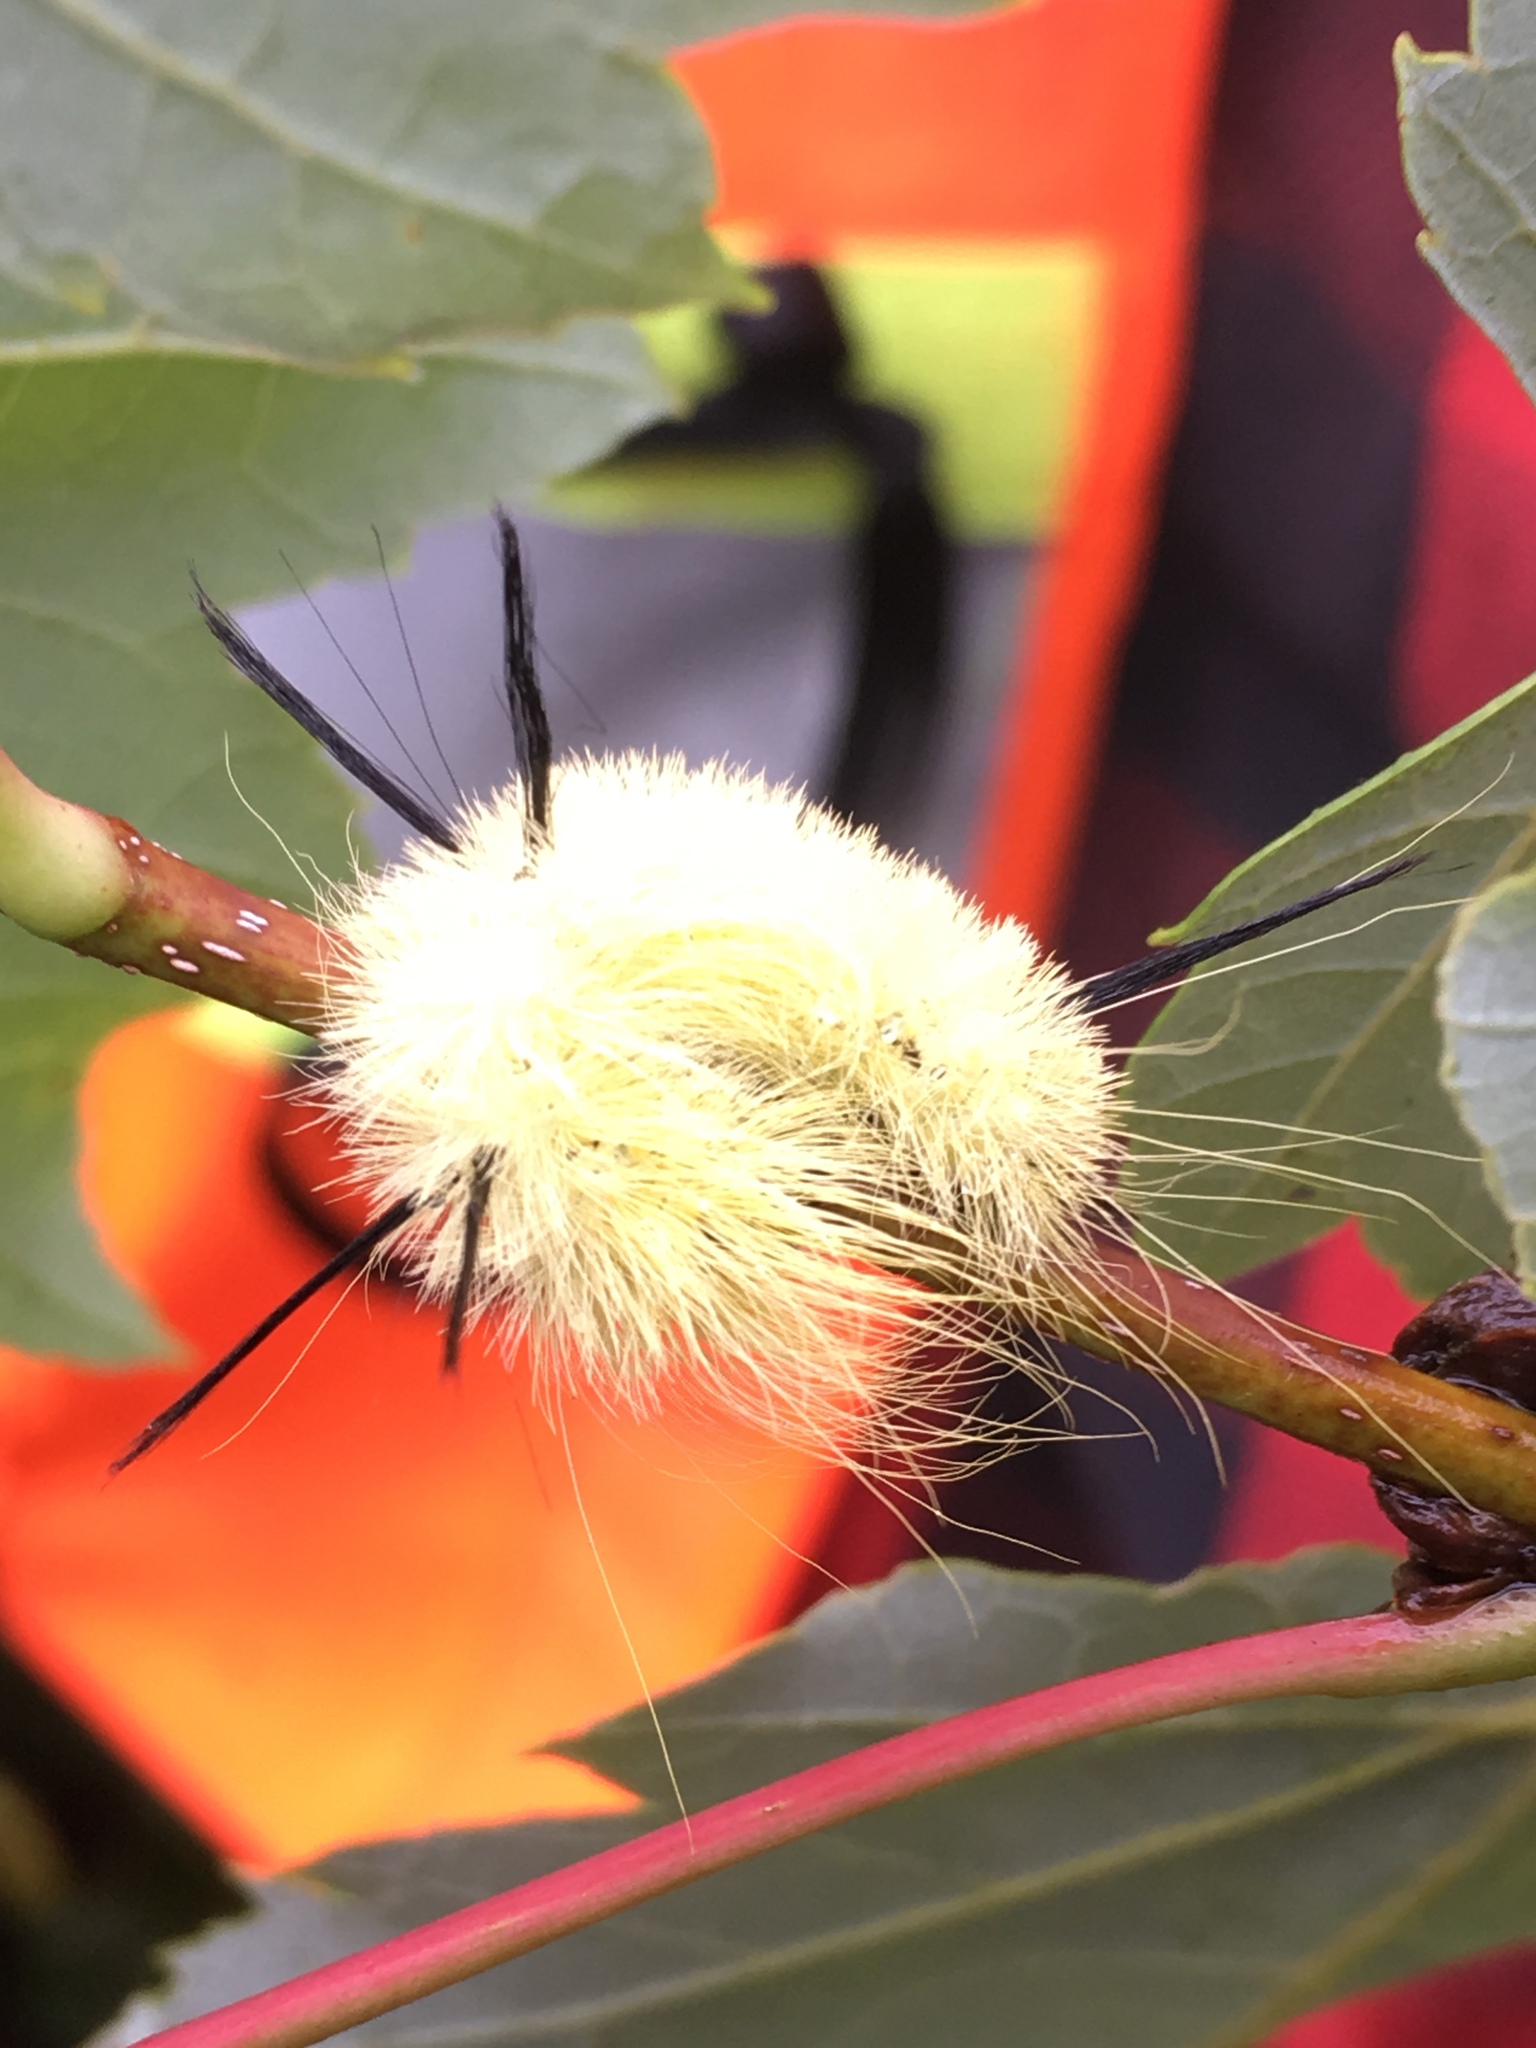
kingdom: Animalia
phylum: Arthropoda
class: Insecta
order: Lepidoptera
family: Noctuidae
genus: Acronicta
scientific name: Acronicta americana
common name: American dagger
